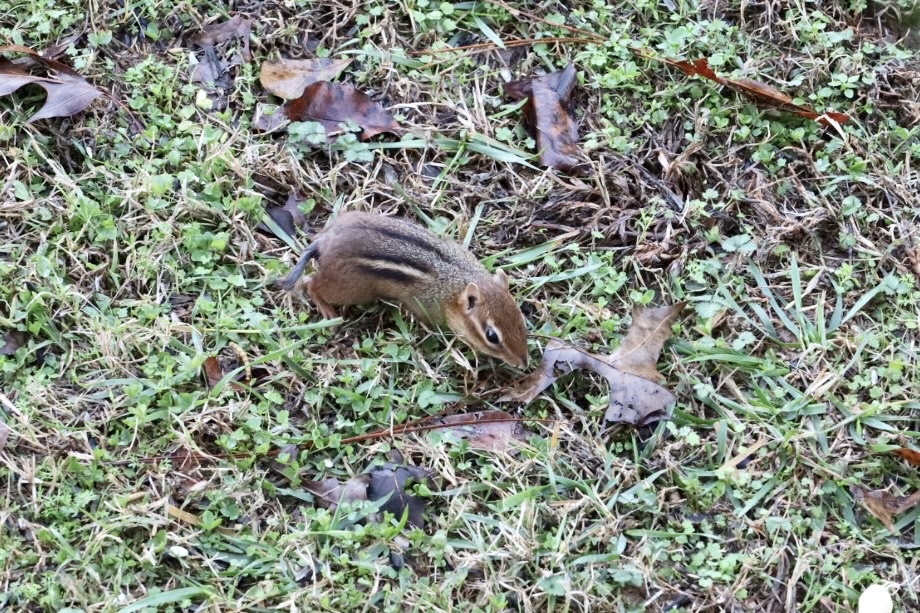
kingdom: Animalia
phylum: Chordata
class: Mammalia
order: Rodentia
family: Sciuridae
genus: Tamias
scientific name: Tamias striatus
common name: Eastern chipmunk
